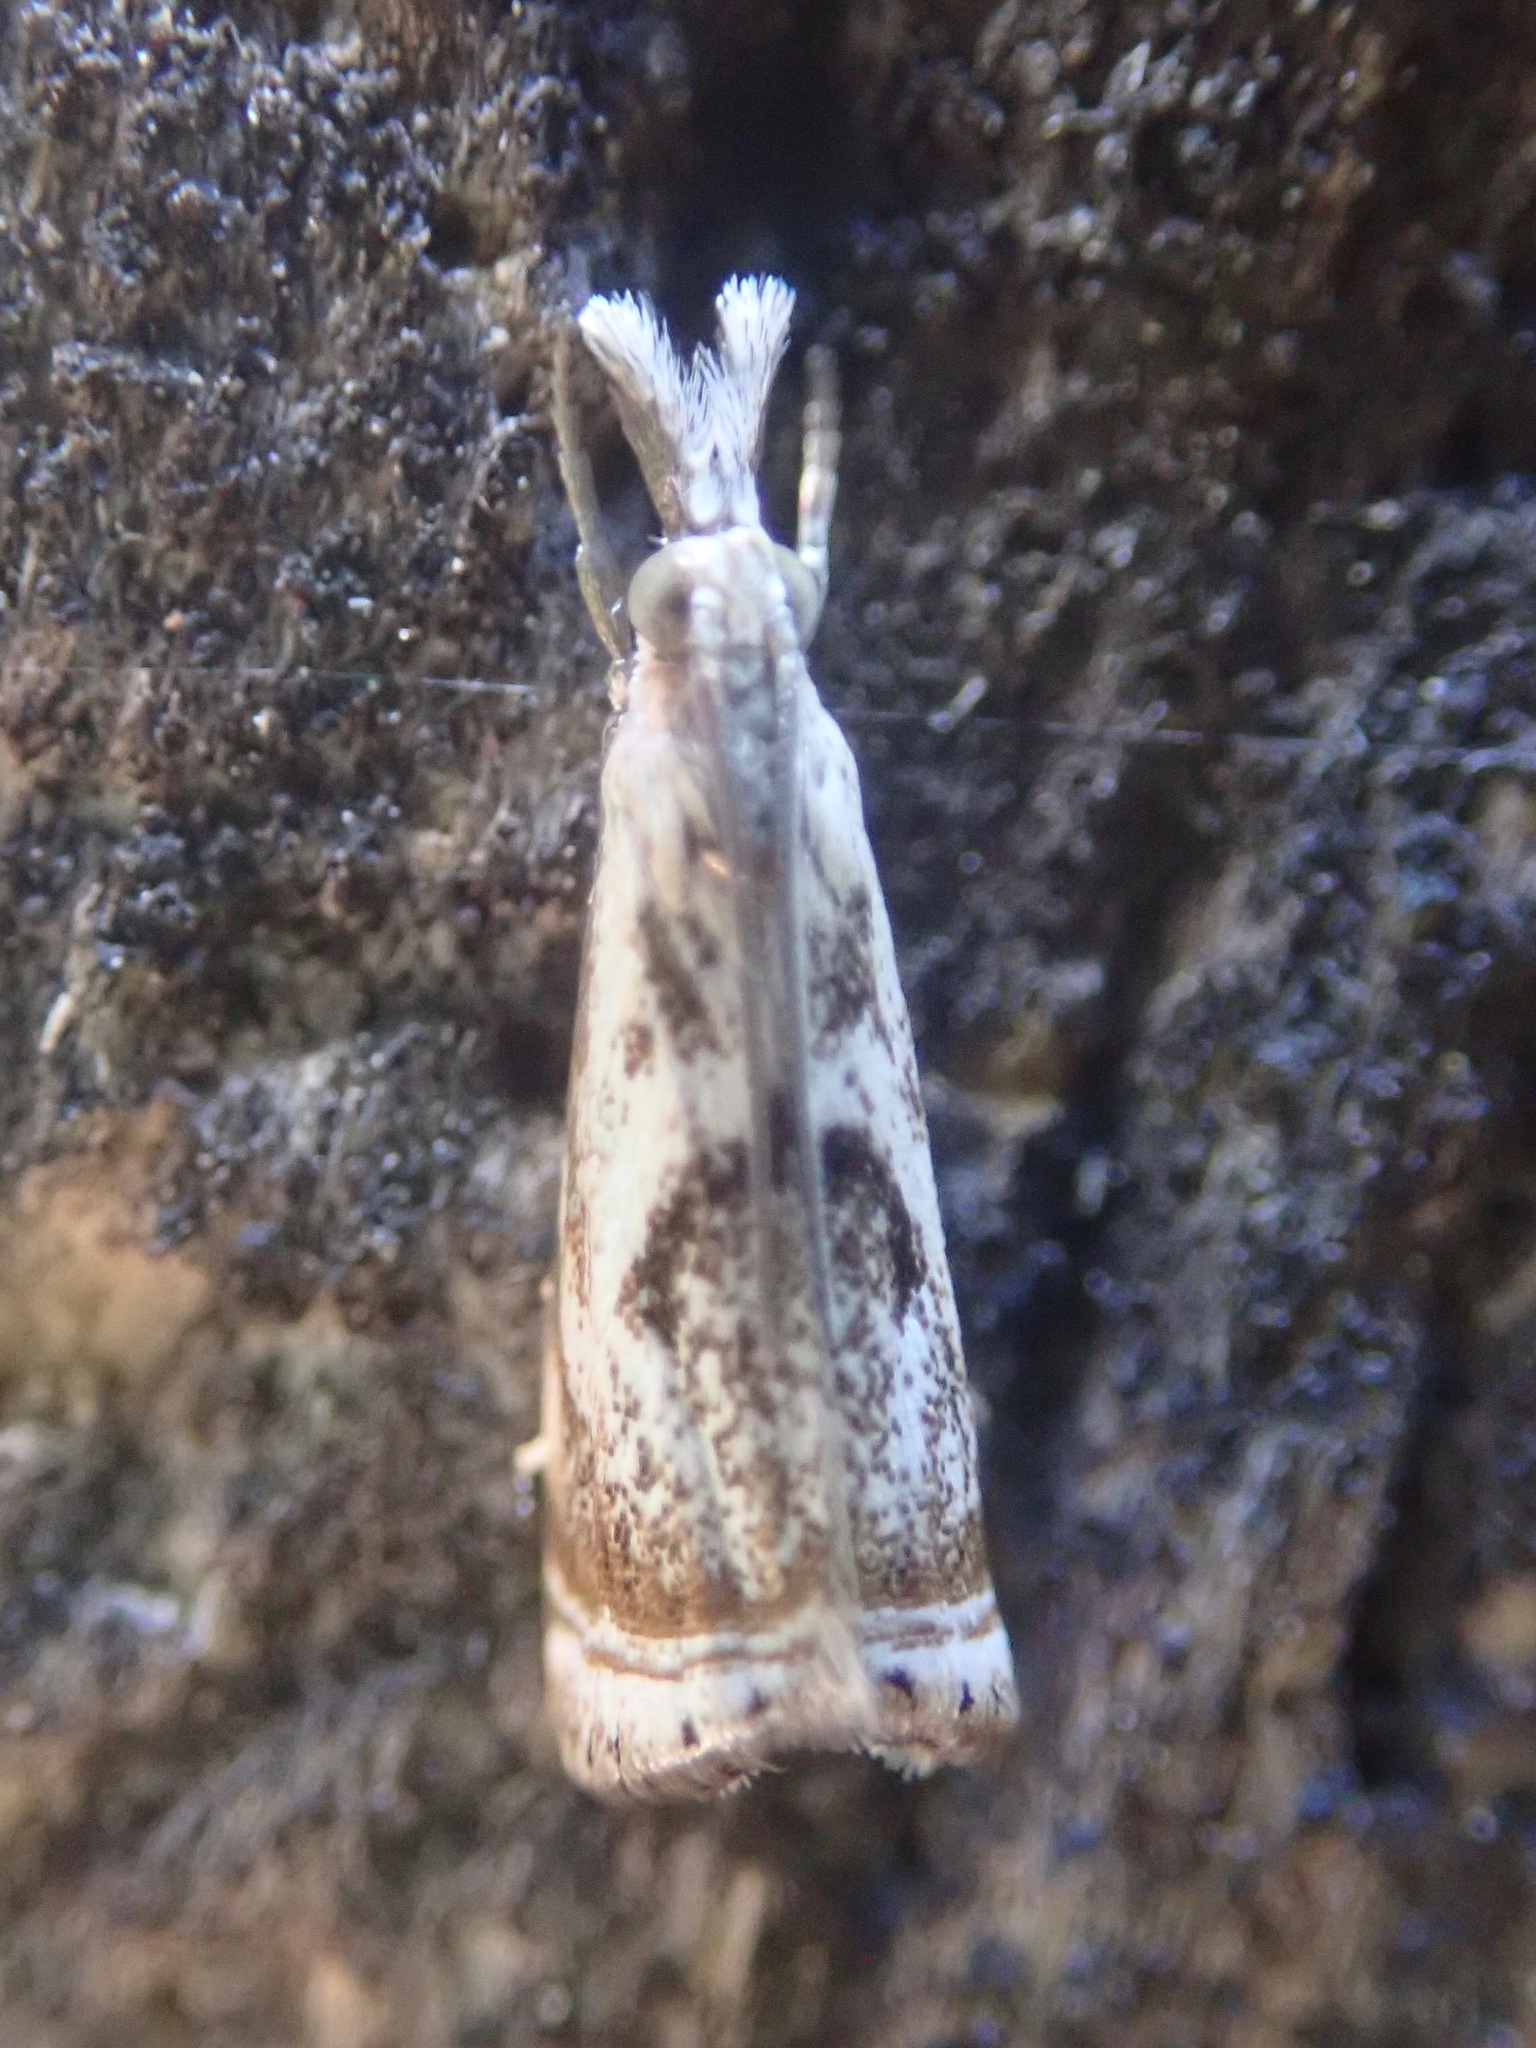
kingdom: Animalia
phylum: Arthropoda
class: Insecta
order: Lepidoptera
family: Crambidae
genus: Microcrambus
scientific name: Microcrambus elegans
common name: Elegant grass-veneer
